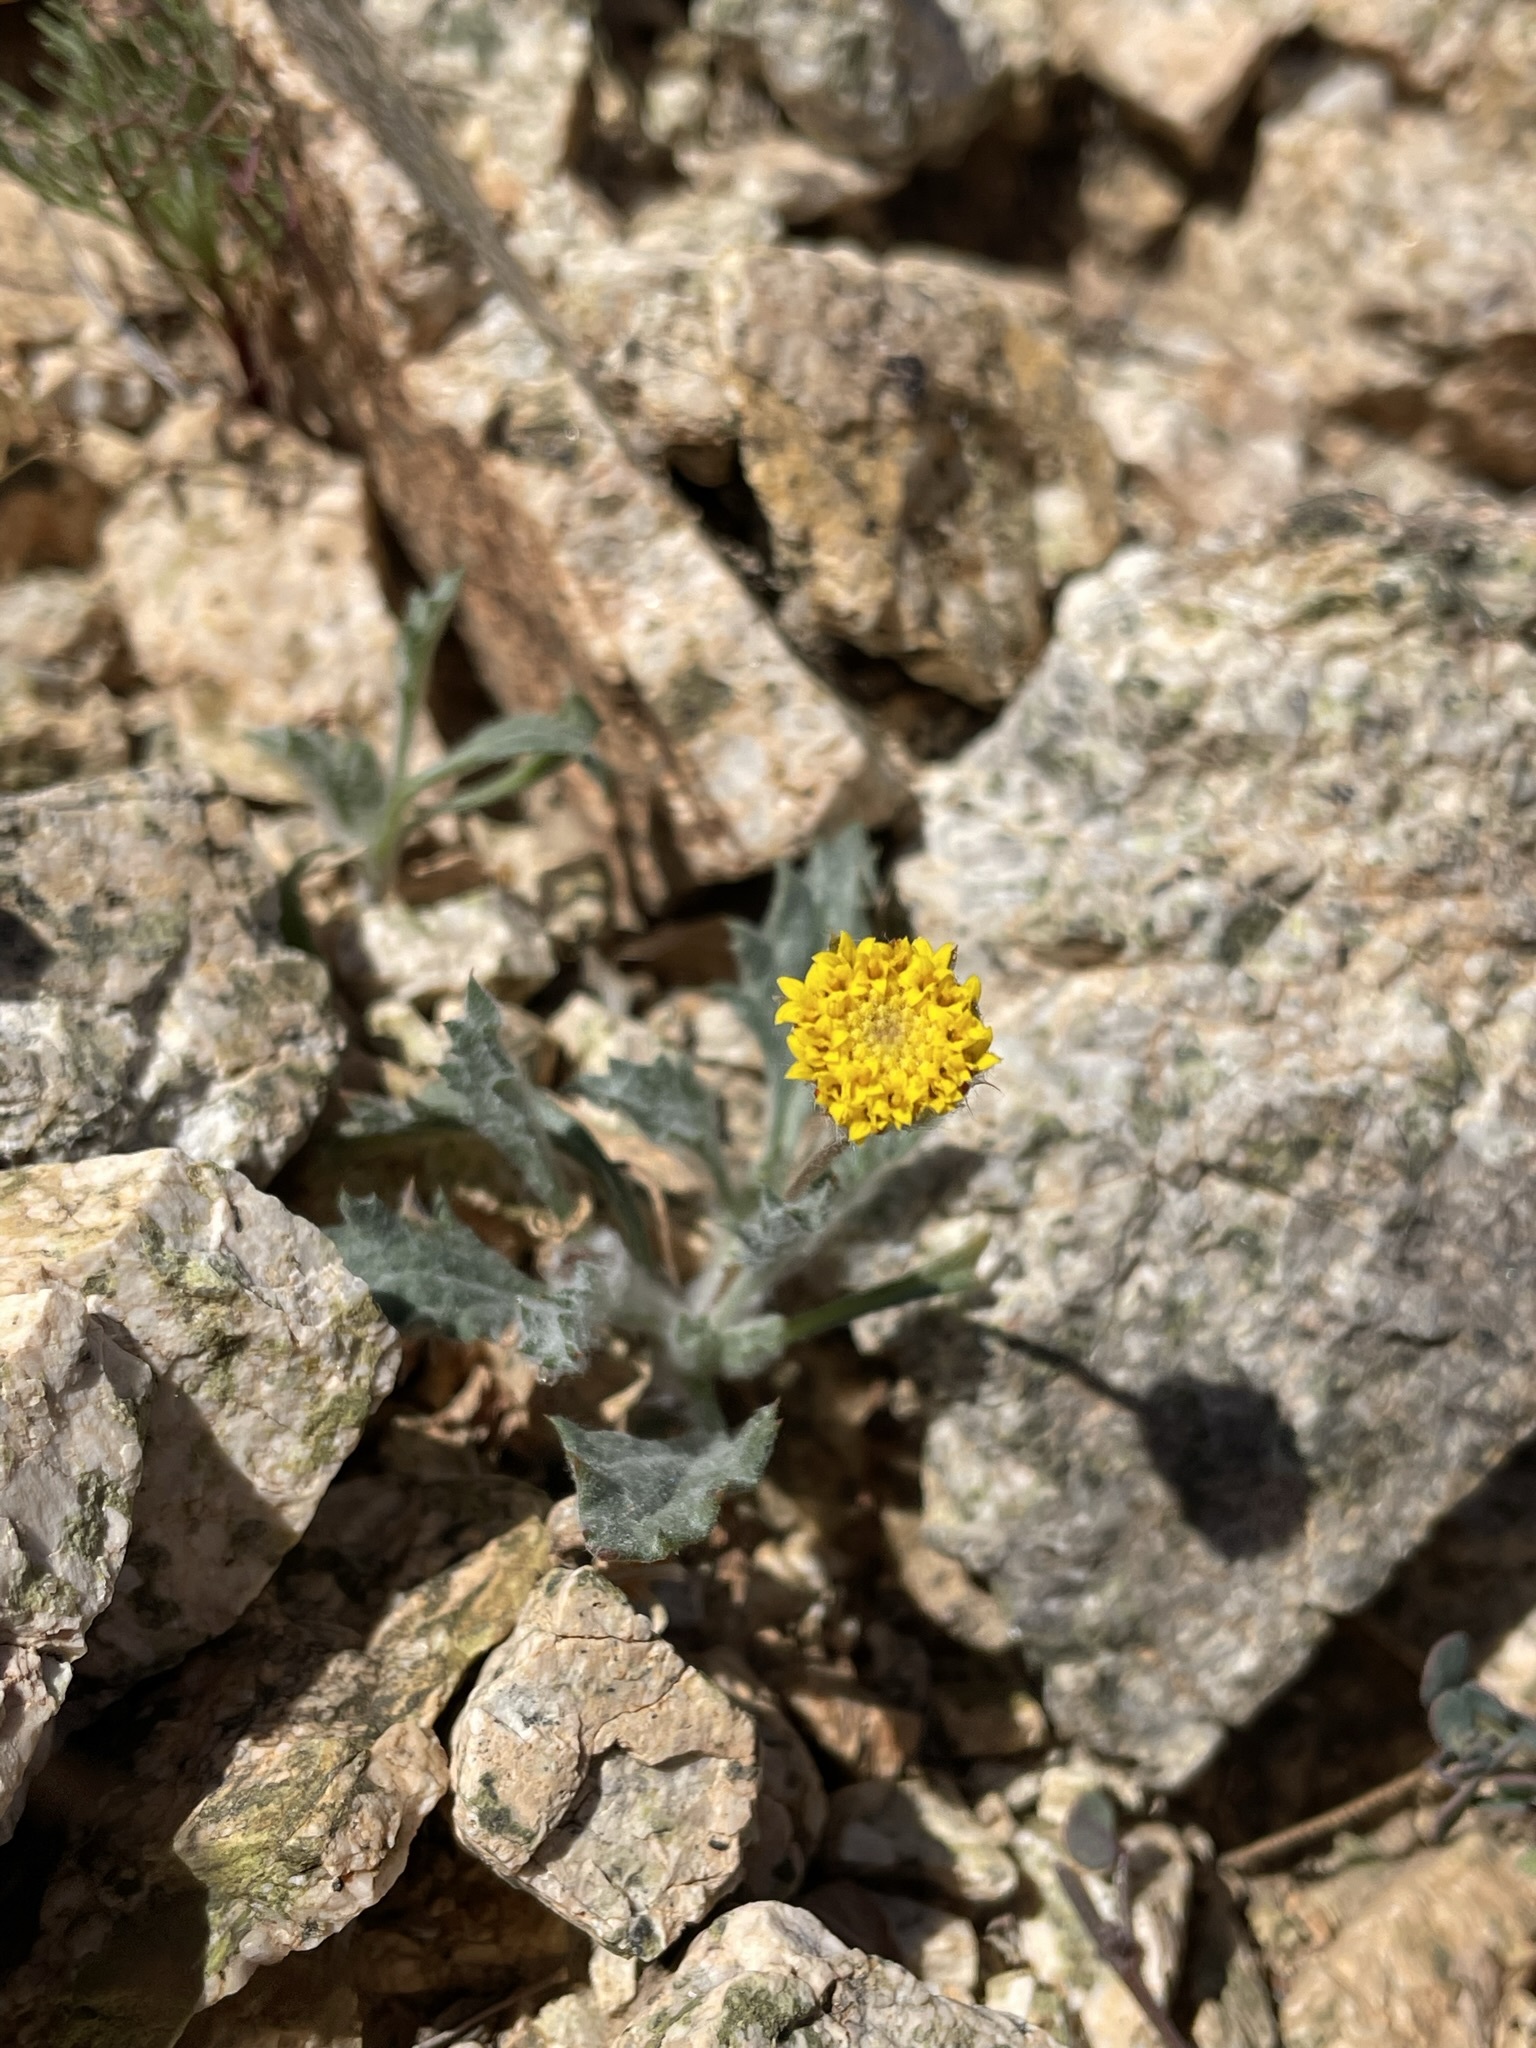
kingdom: Plantae
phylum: Tracheophyta
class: Magnoliopsida
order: Asterales
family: Asteraceae
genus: Trichoptilium
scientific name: Trichoptilium incisum
